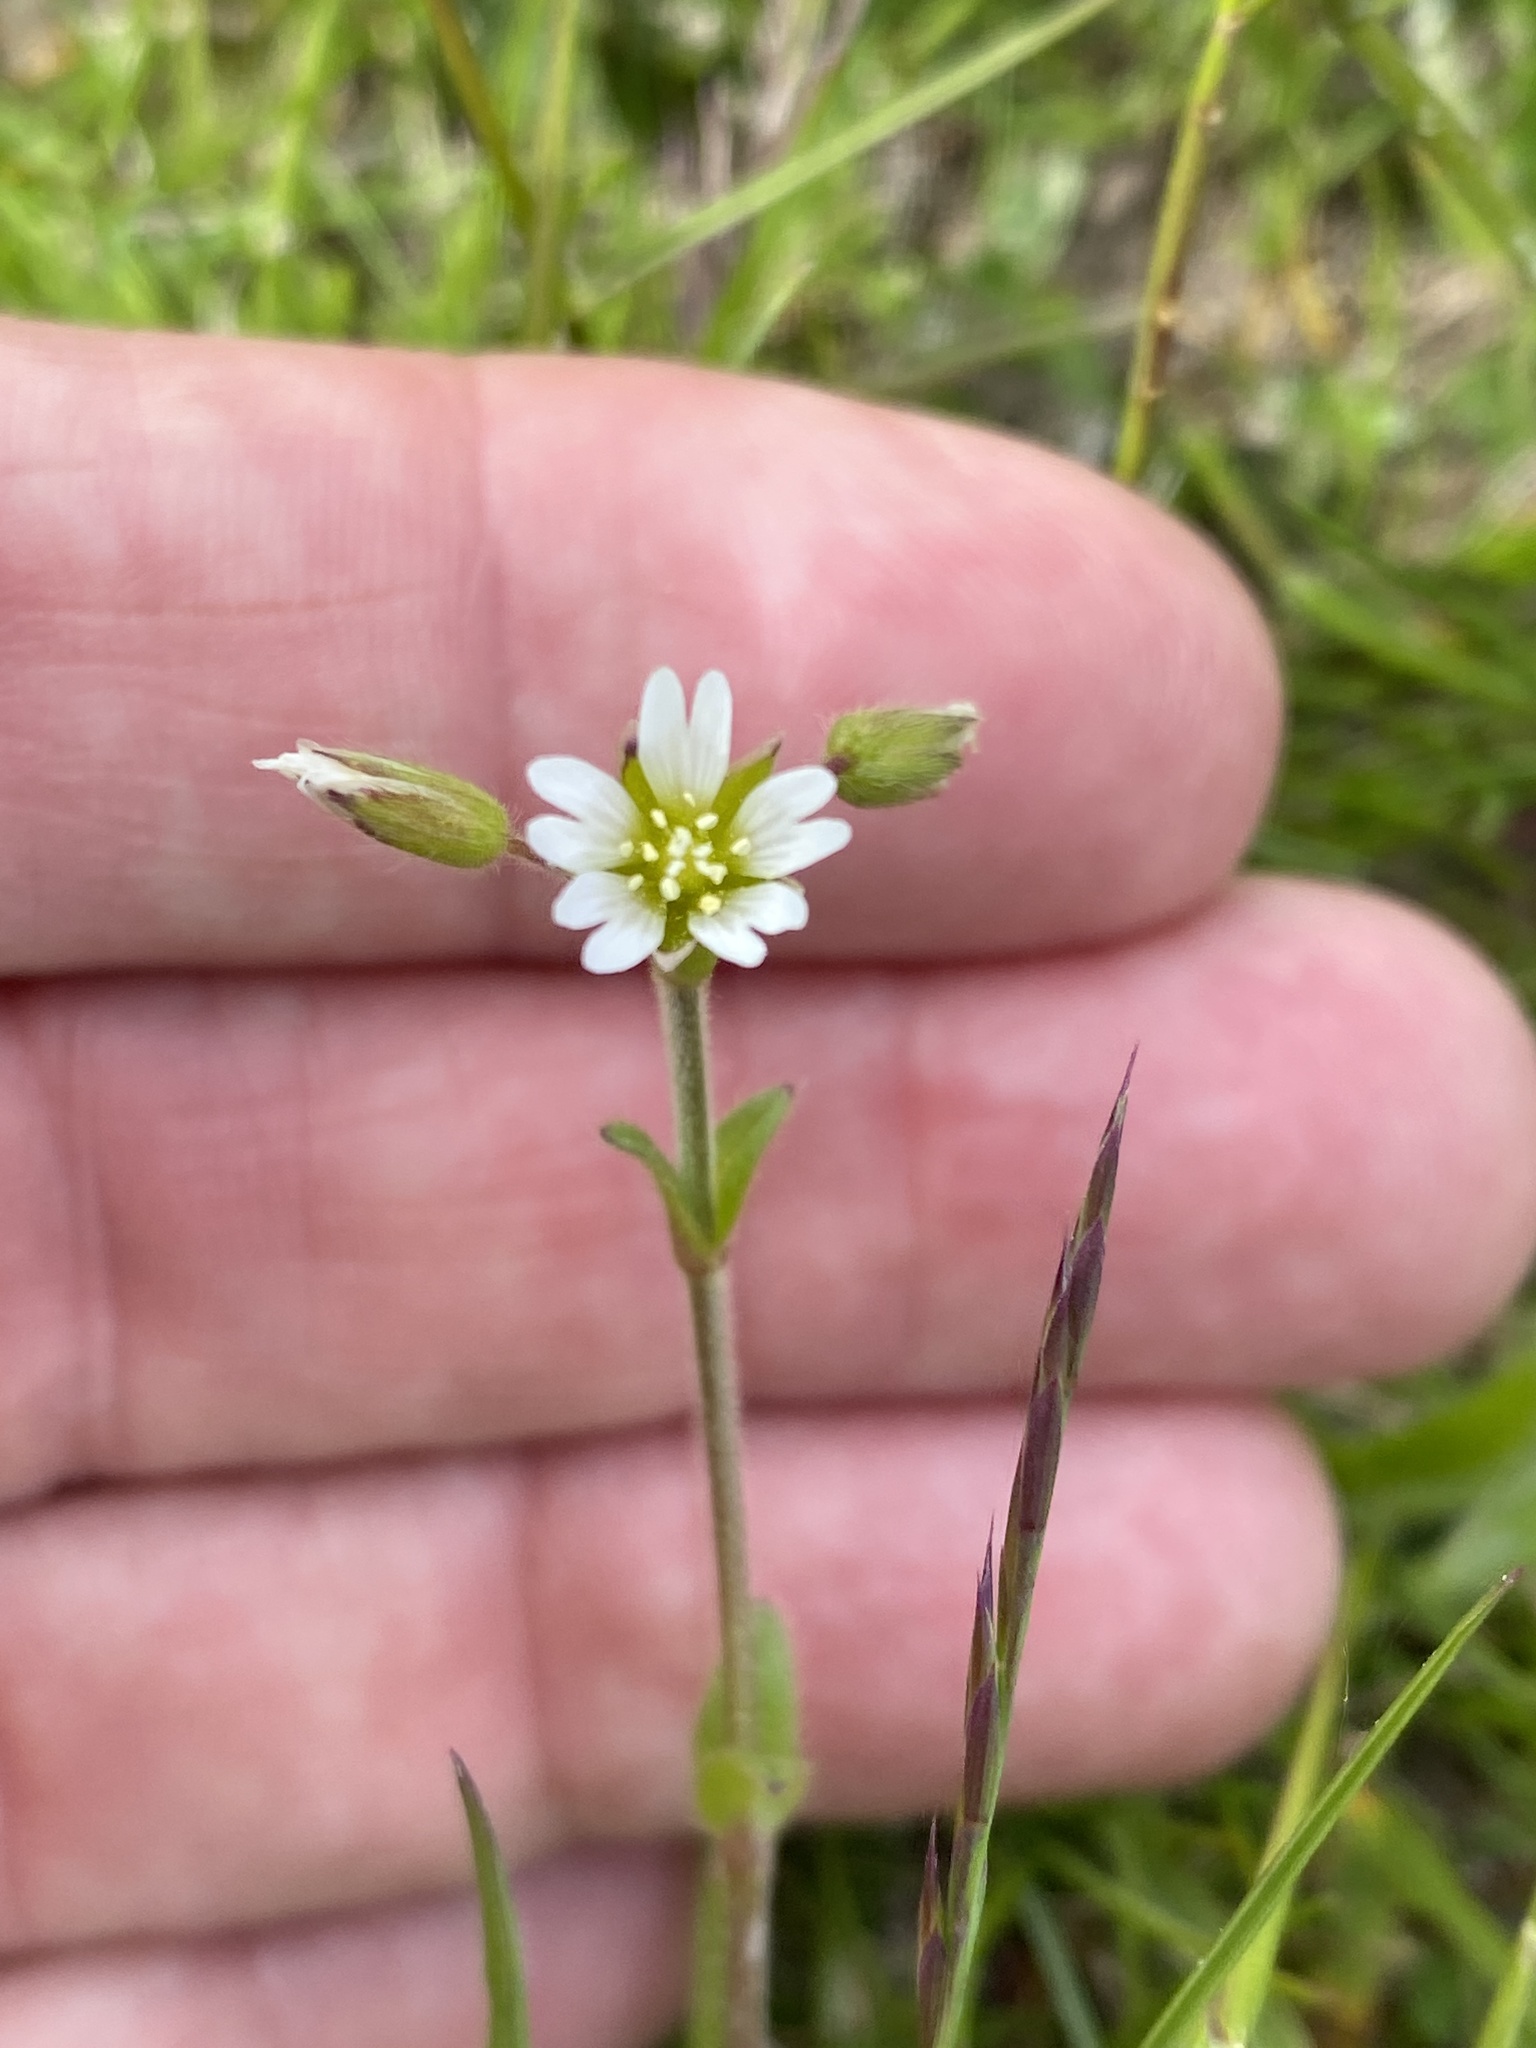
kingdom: Plantae
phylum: Tracheophyta
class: Magnoliopsida
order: Caryophyllales
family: Caryophyllaceae
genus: Cerastium
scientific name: Cerastium fontanum
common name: Common mouse-ear
